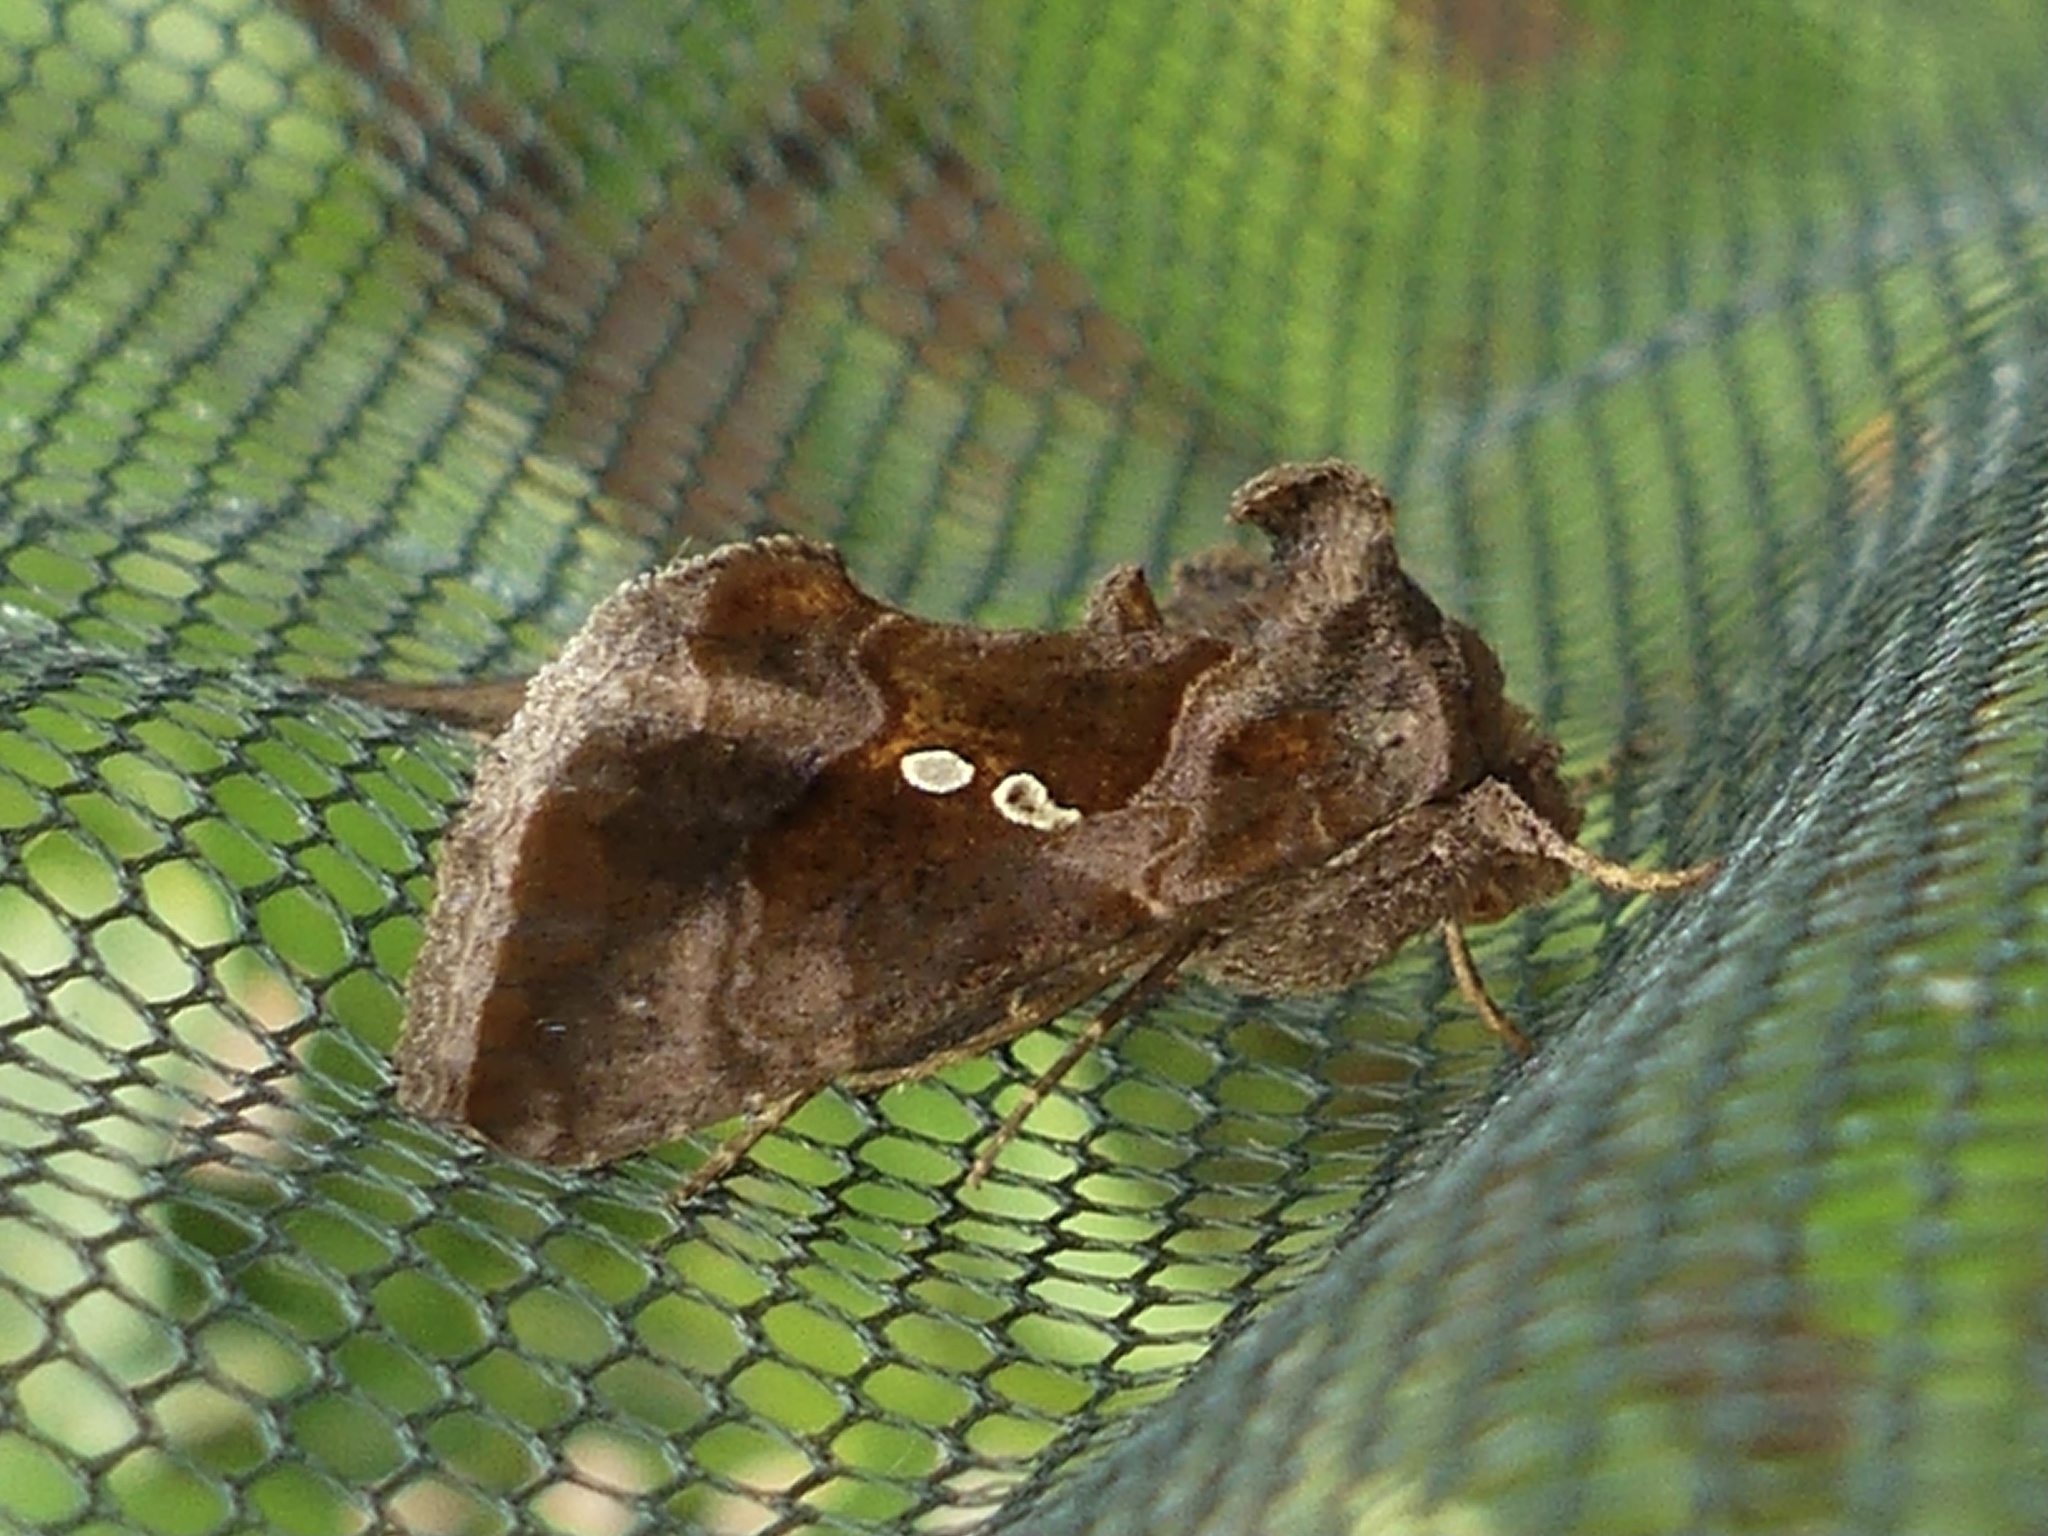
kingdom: Animalia
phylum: Arthropoda
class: Insecta
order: Lepidoptera
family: Noctuidae
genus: Chrysodeixis
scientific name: Chrysodeixis chalcites
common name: Golden twin-spot
